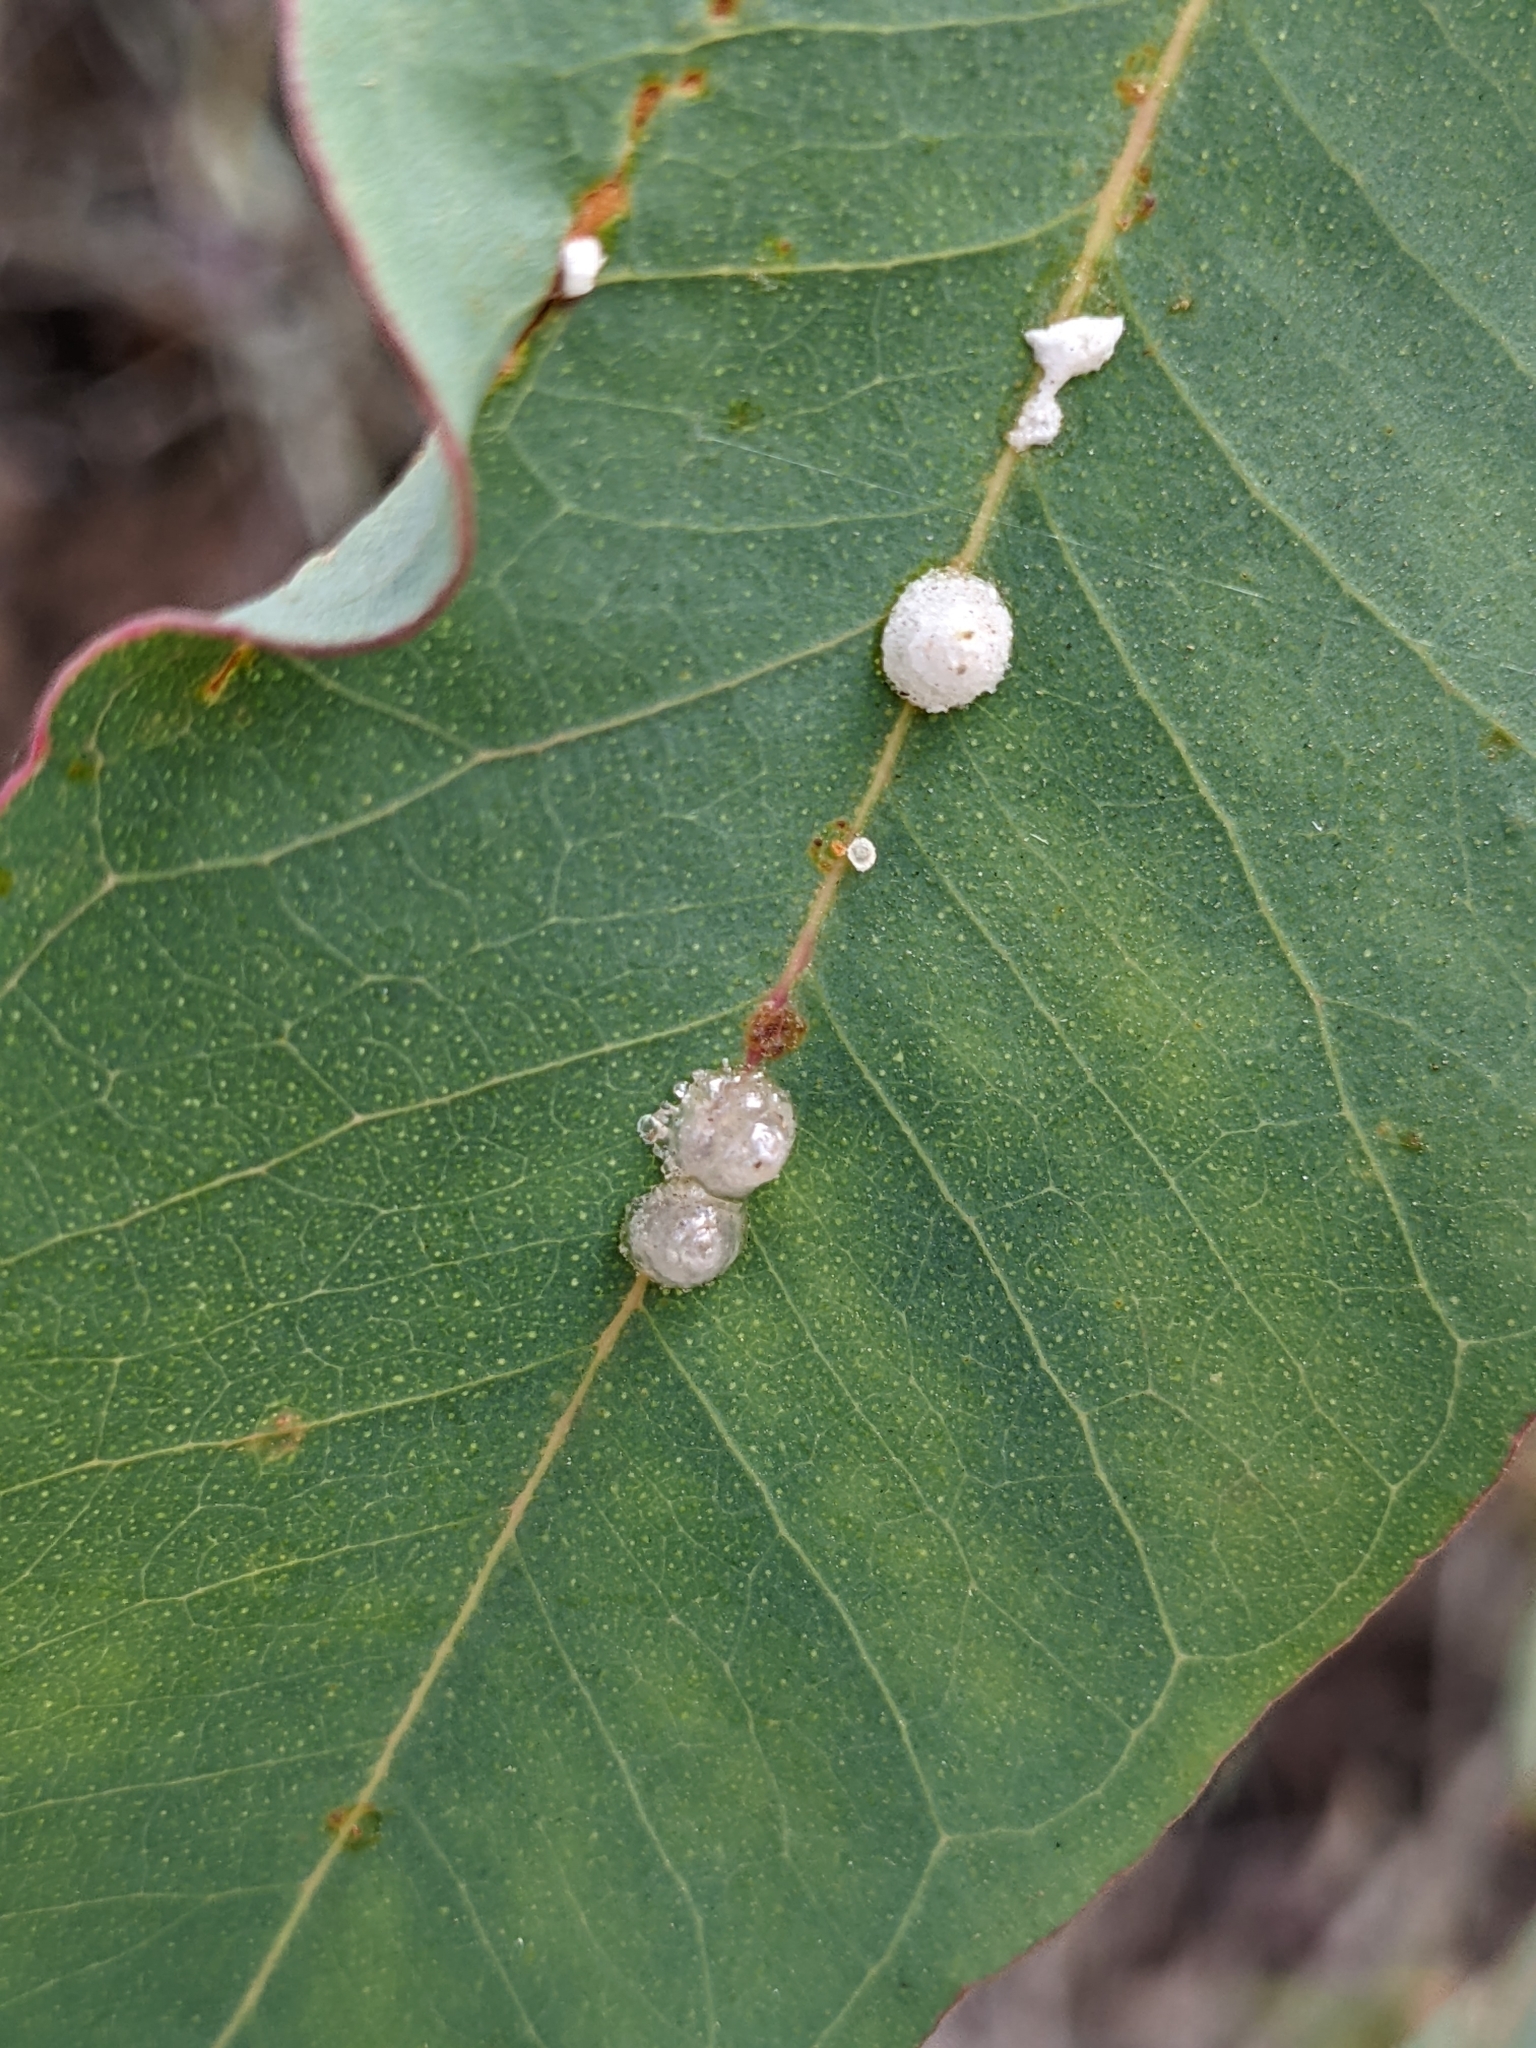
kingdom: Animalia
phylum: Arthropoda
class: Insecta
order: Hemiptera
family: Aphalaridae
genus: Glycaspis
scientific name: Glycaspis brimblecombei
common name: Red gum lerp psyllid
